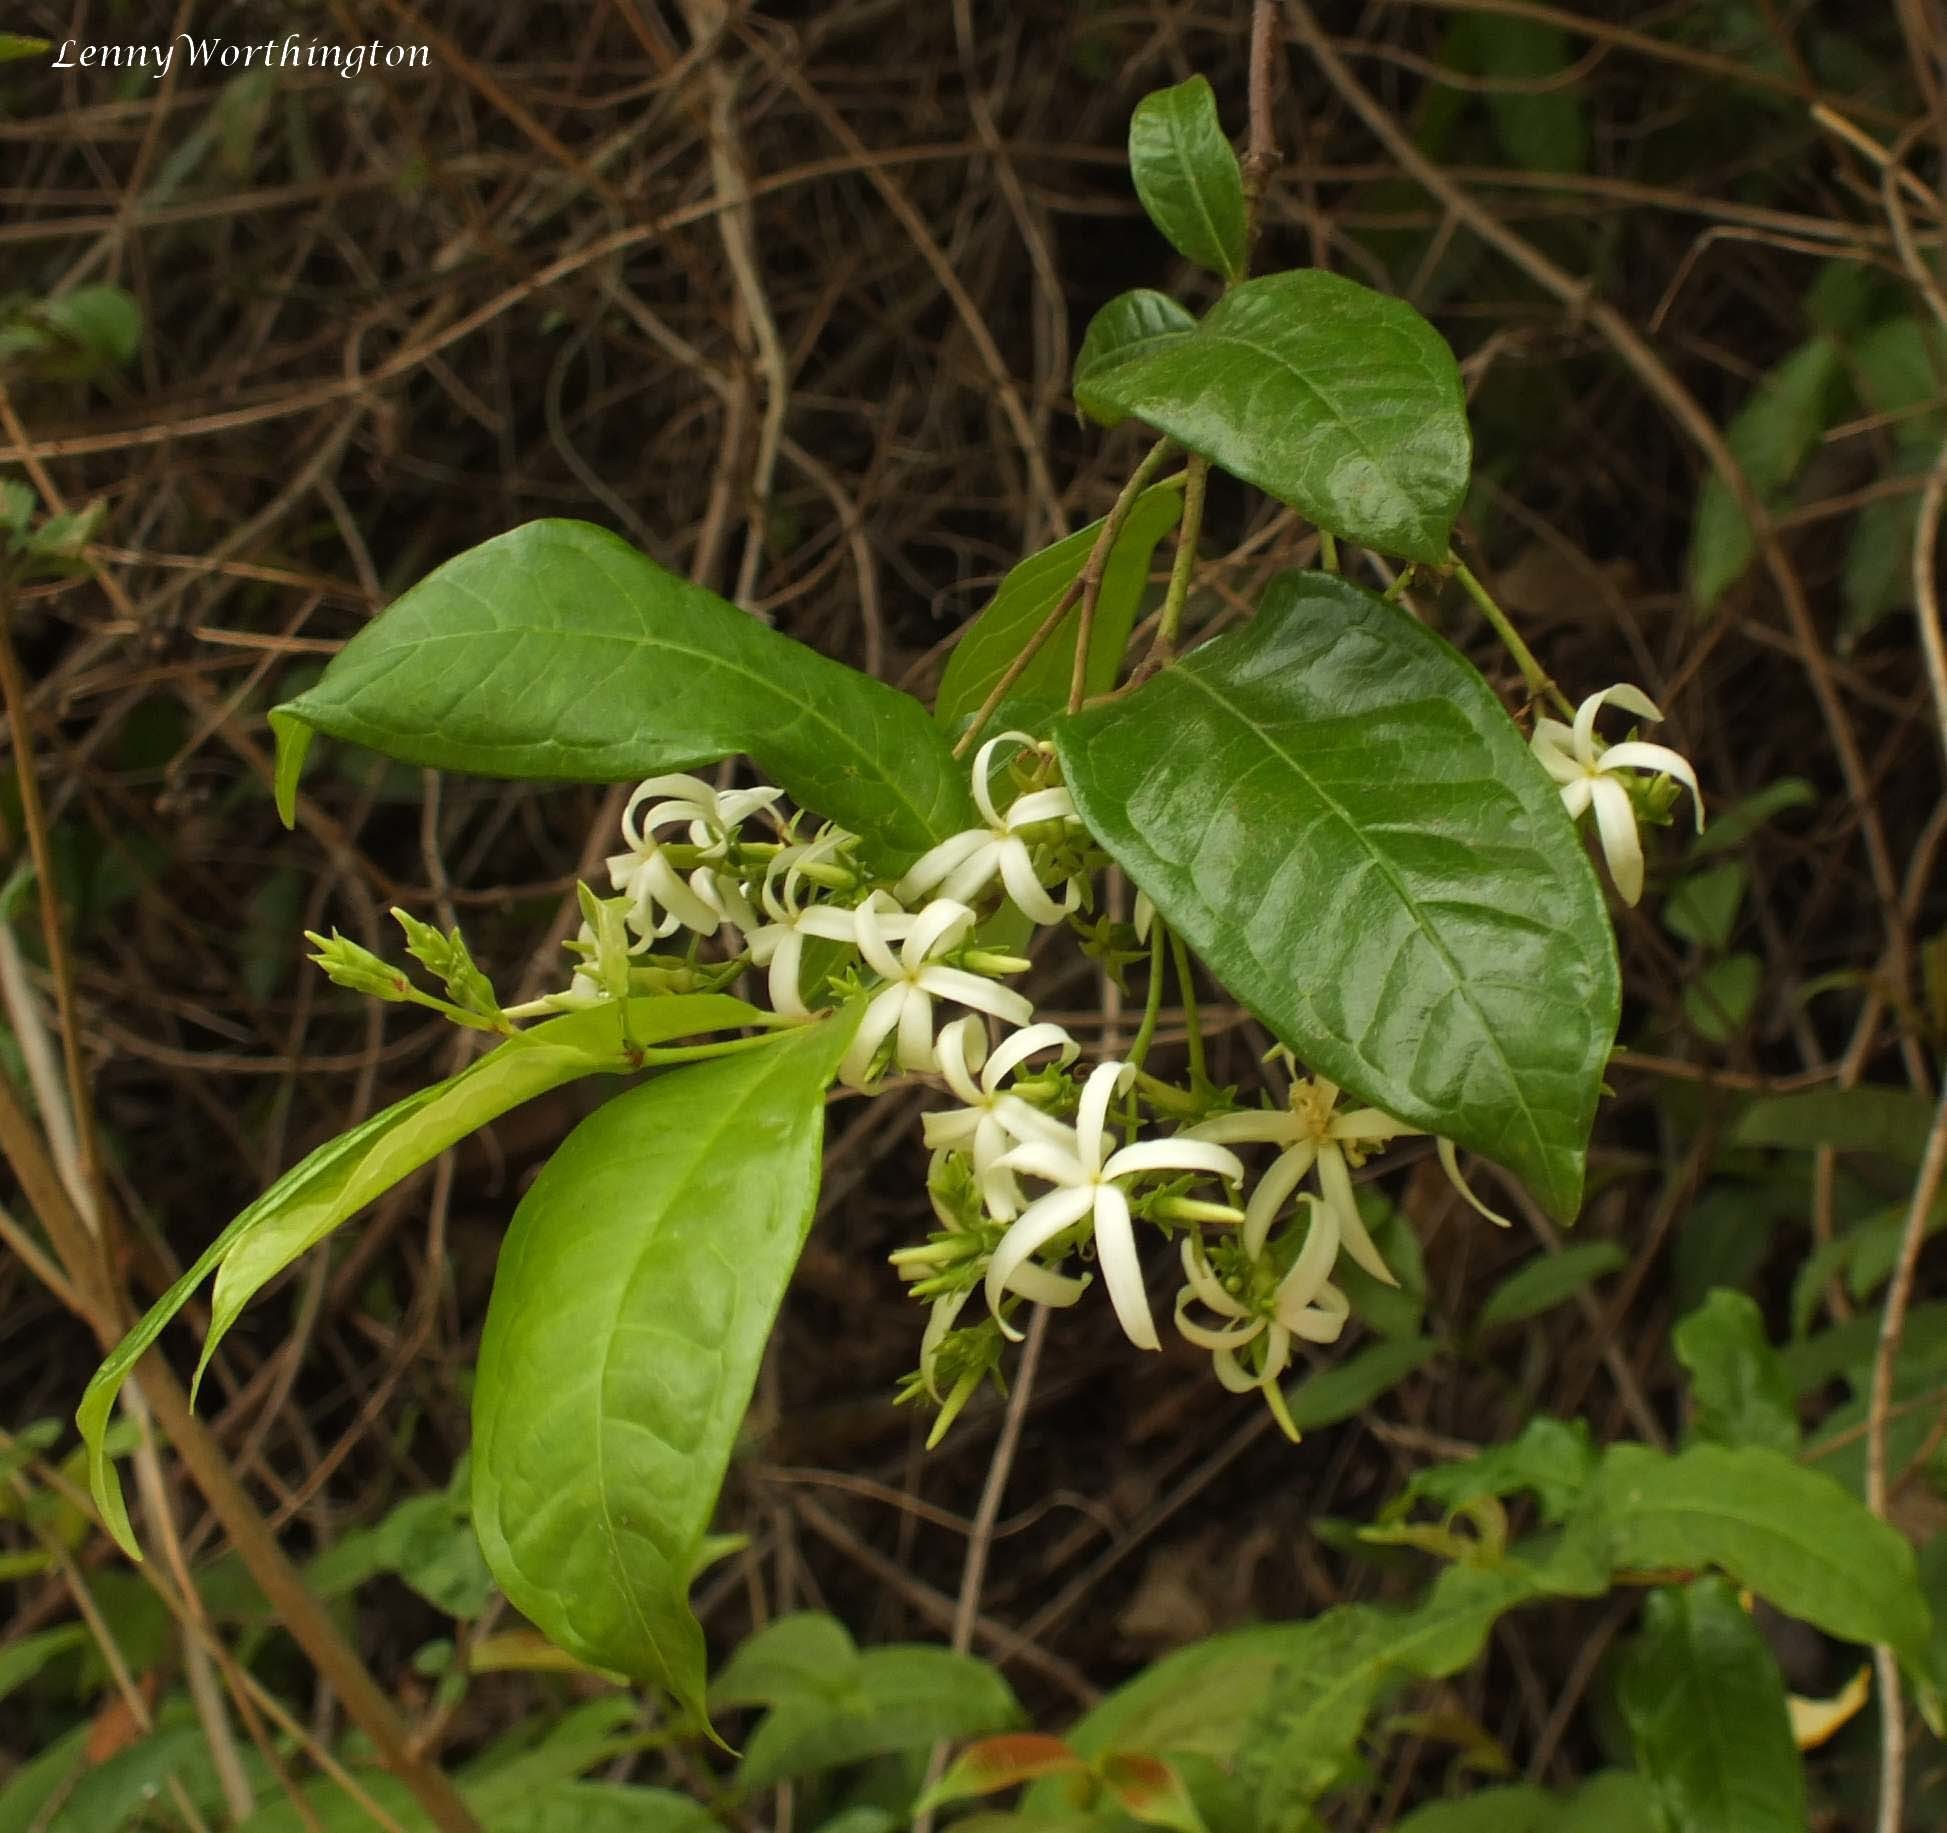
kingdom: Plantae
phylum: Tracheophyta
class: Magnoliopsida
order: Gentianales
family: Apocynaceae
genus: Amphineurion
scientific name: Amphineurion marginatum
